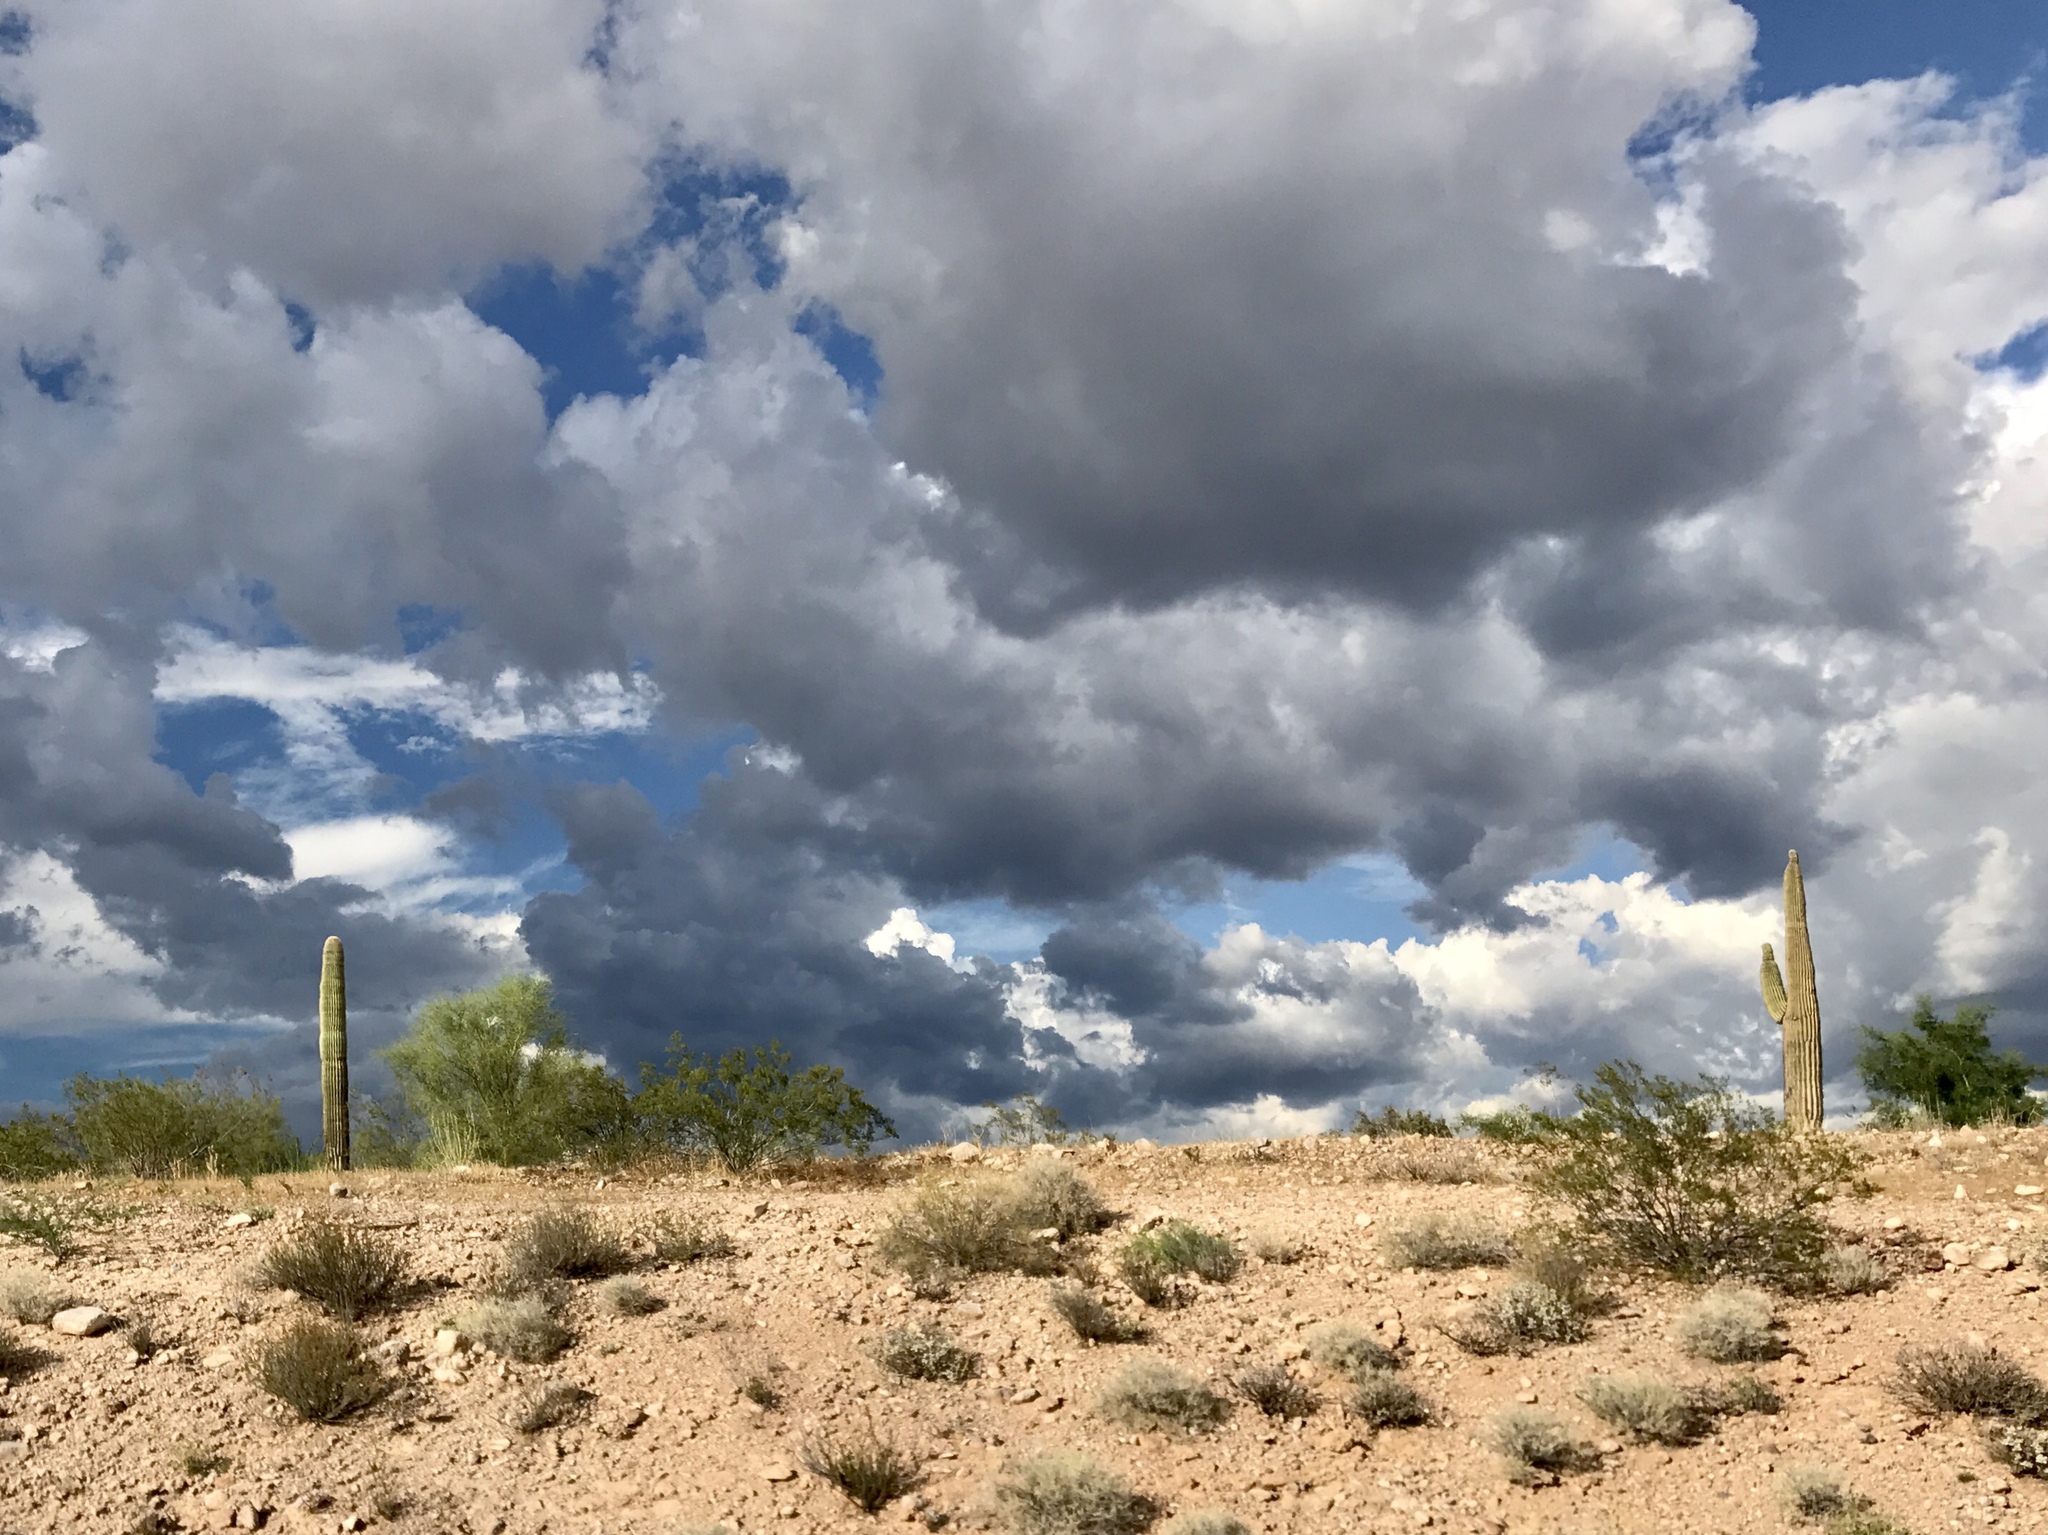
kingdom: Plantae
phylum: Tracheophyta
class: Magnoliopsida
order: Caryophyllales
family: Cactaceae
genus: Carnegiea
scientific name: Carnegiea gigantea
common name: Saguaro
